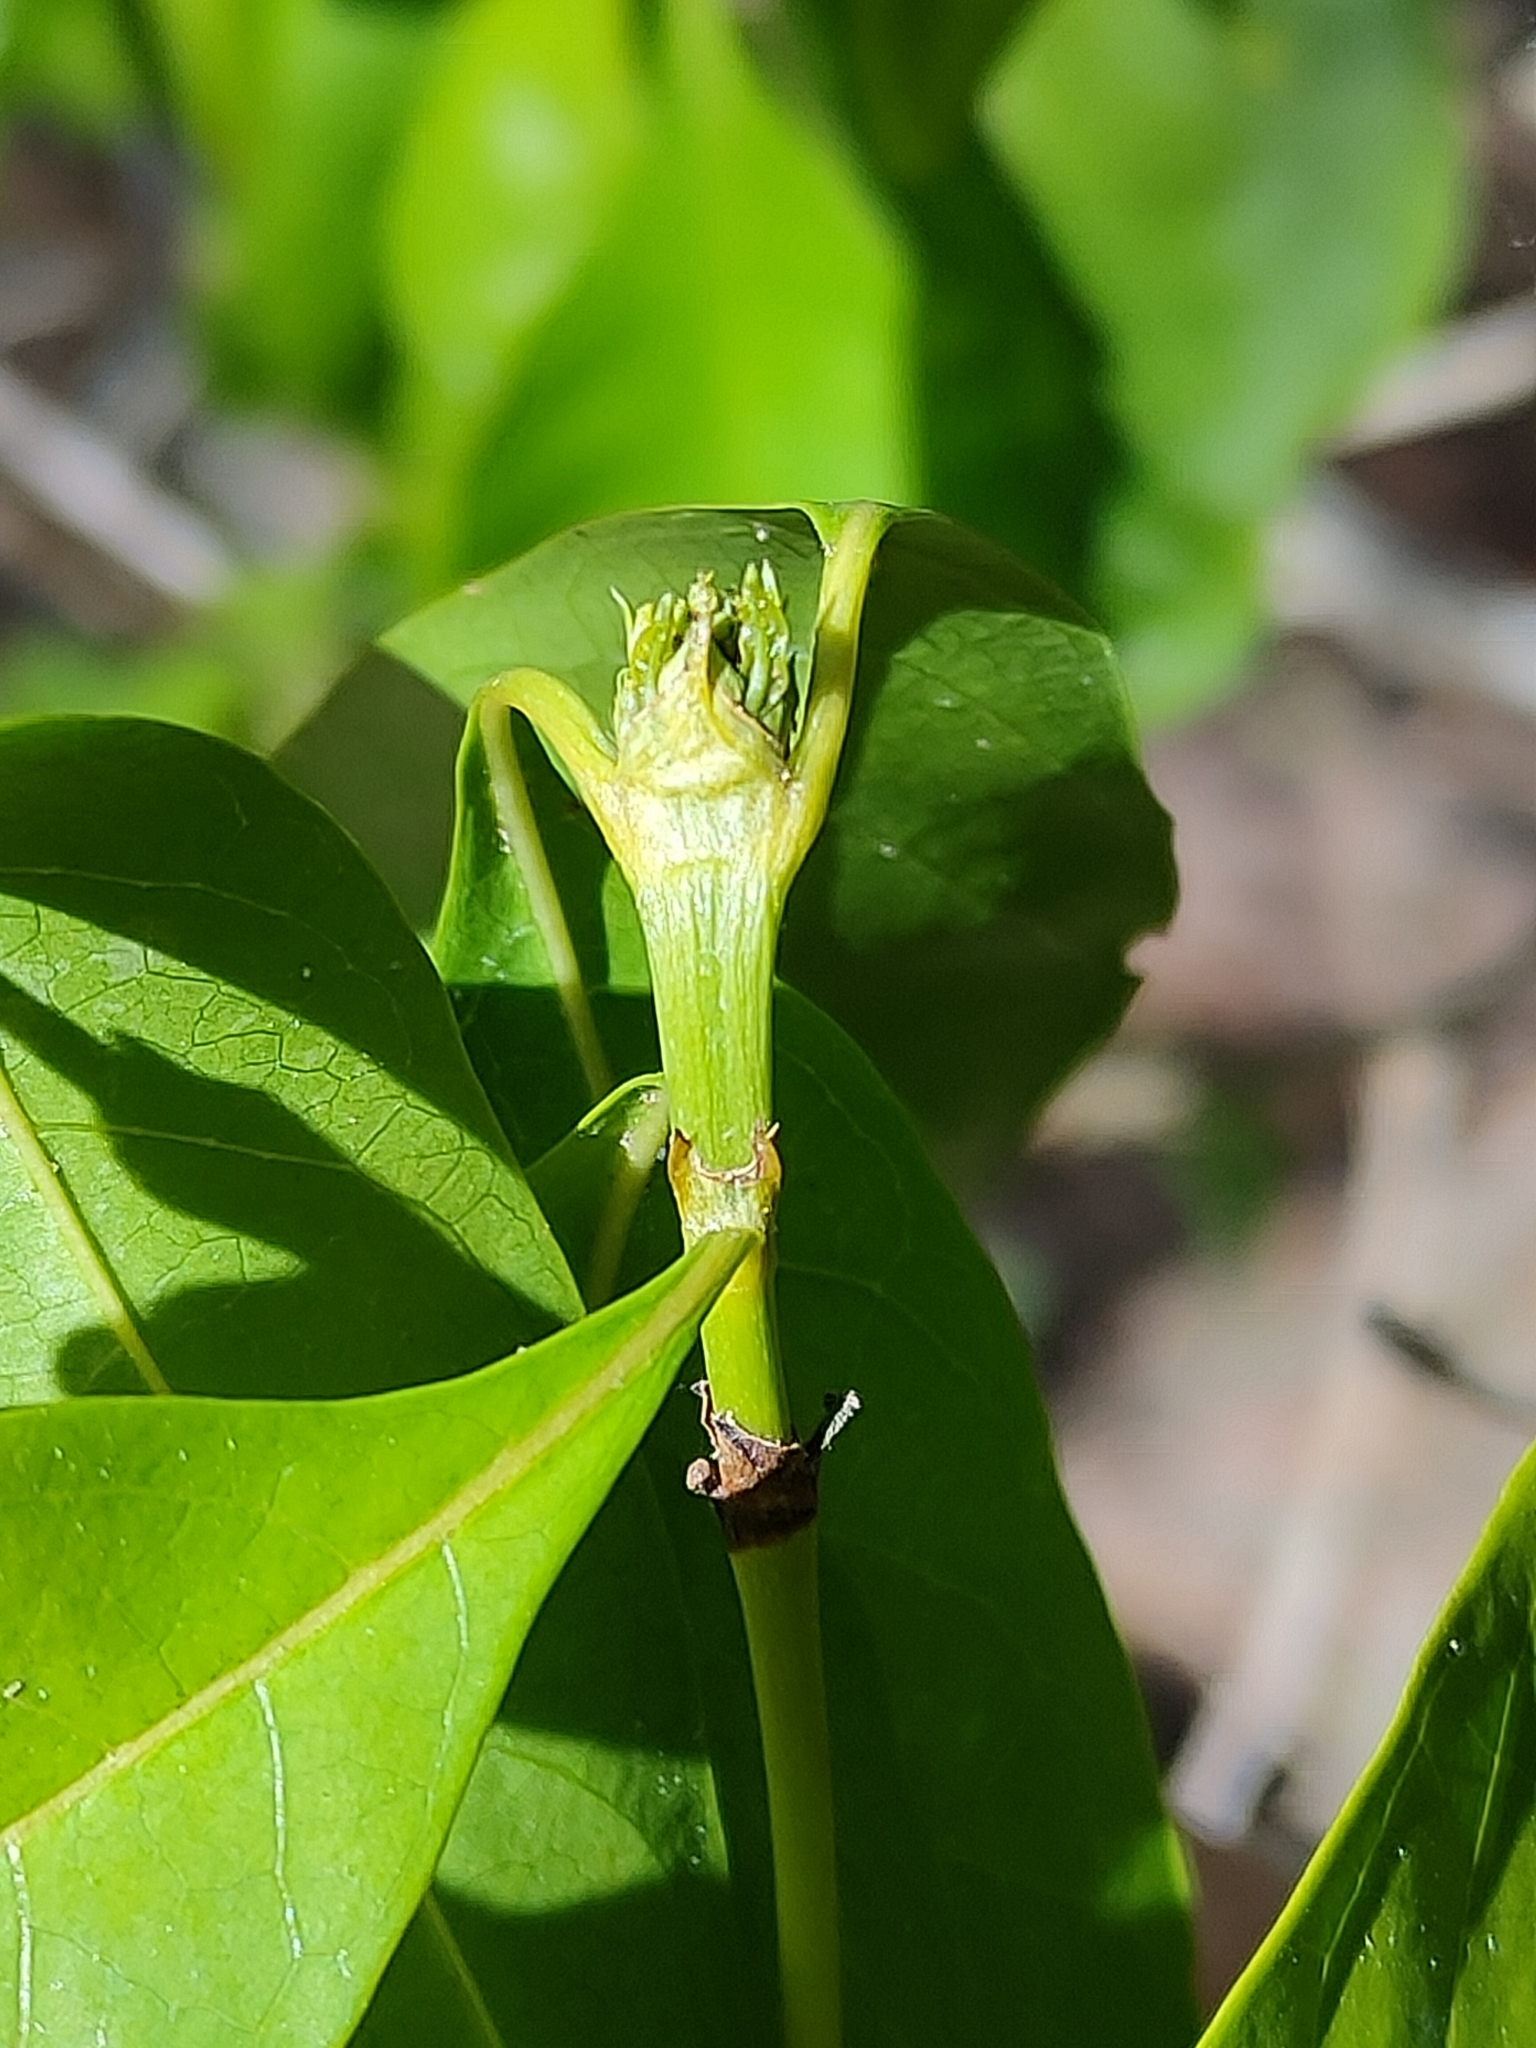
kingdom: Plantae
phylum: Tracheophyta
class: Magnoliopsida
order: Gentianales
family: Rubiaceae
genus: Pavetta
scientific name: Pavetta australiensis
